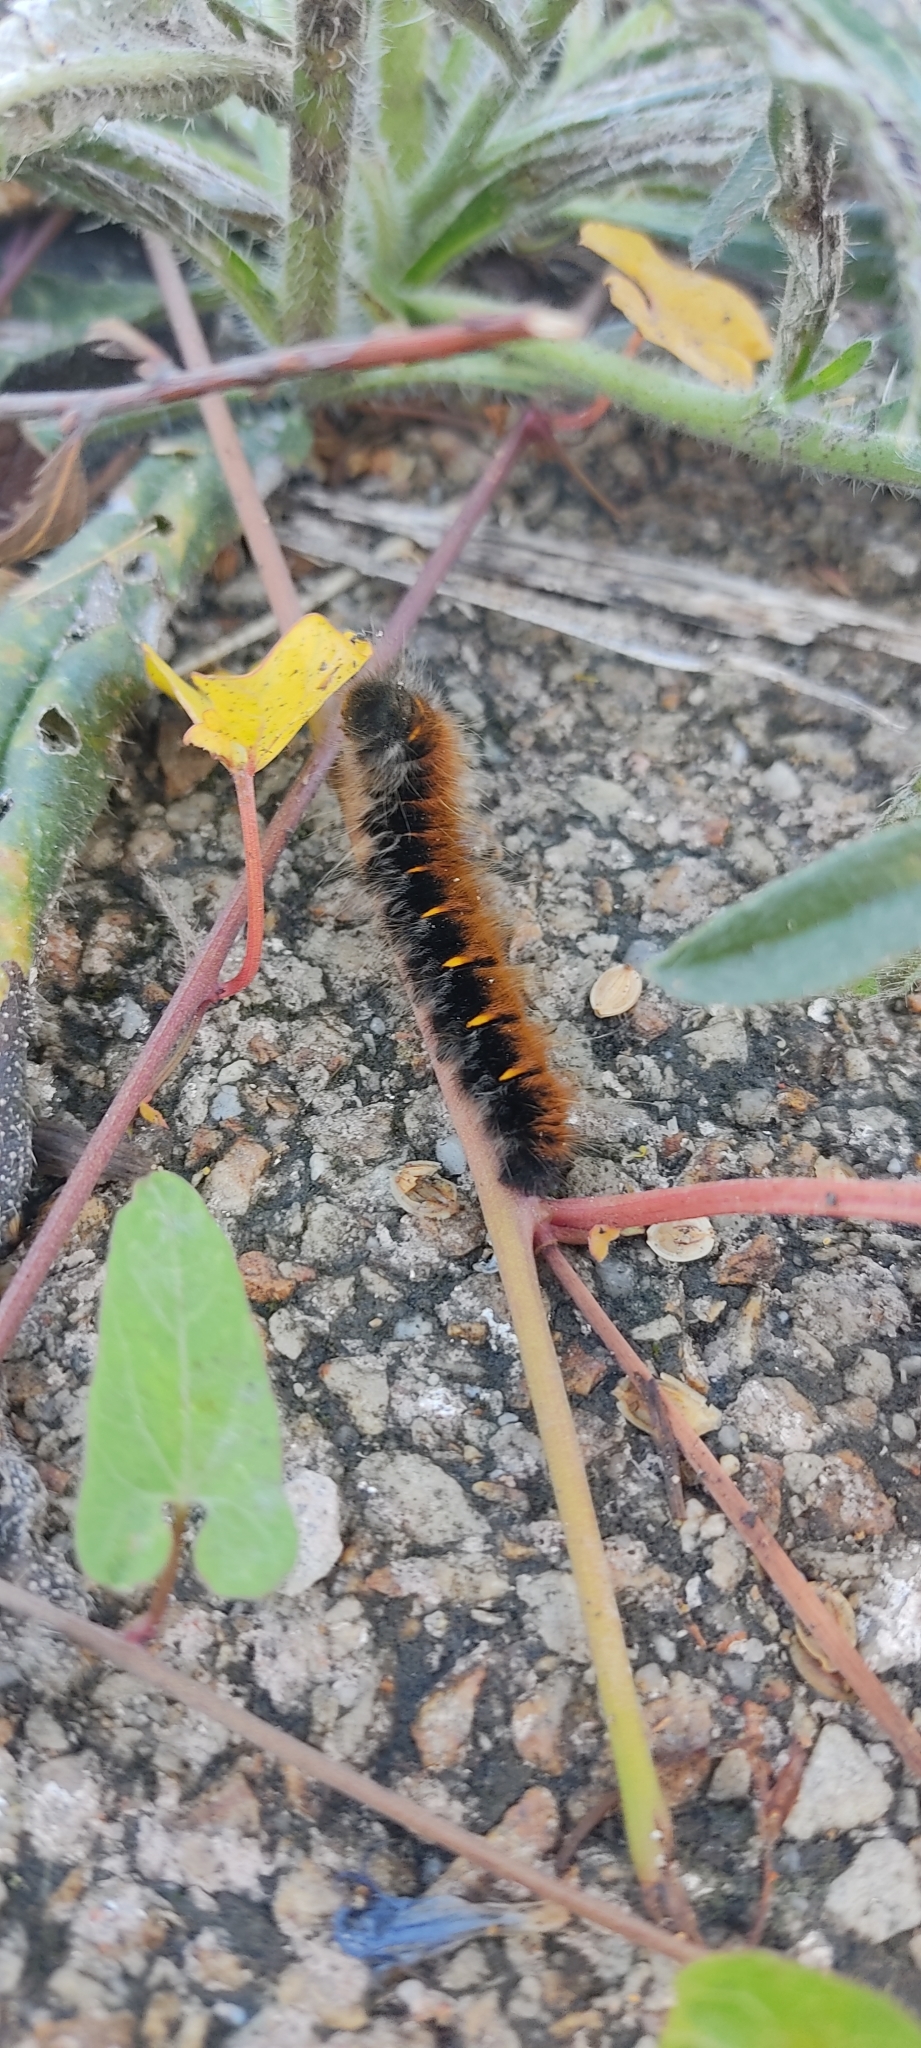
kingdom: Animalia
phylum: Arthropoda
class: Insecta
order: Lepidoptera
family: Lasiocampidae
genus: Macrothylacia
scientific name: Macrothylacia rubi
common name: Fox moth
